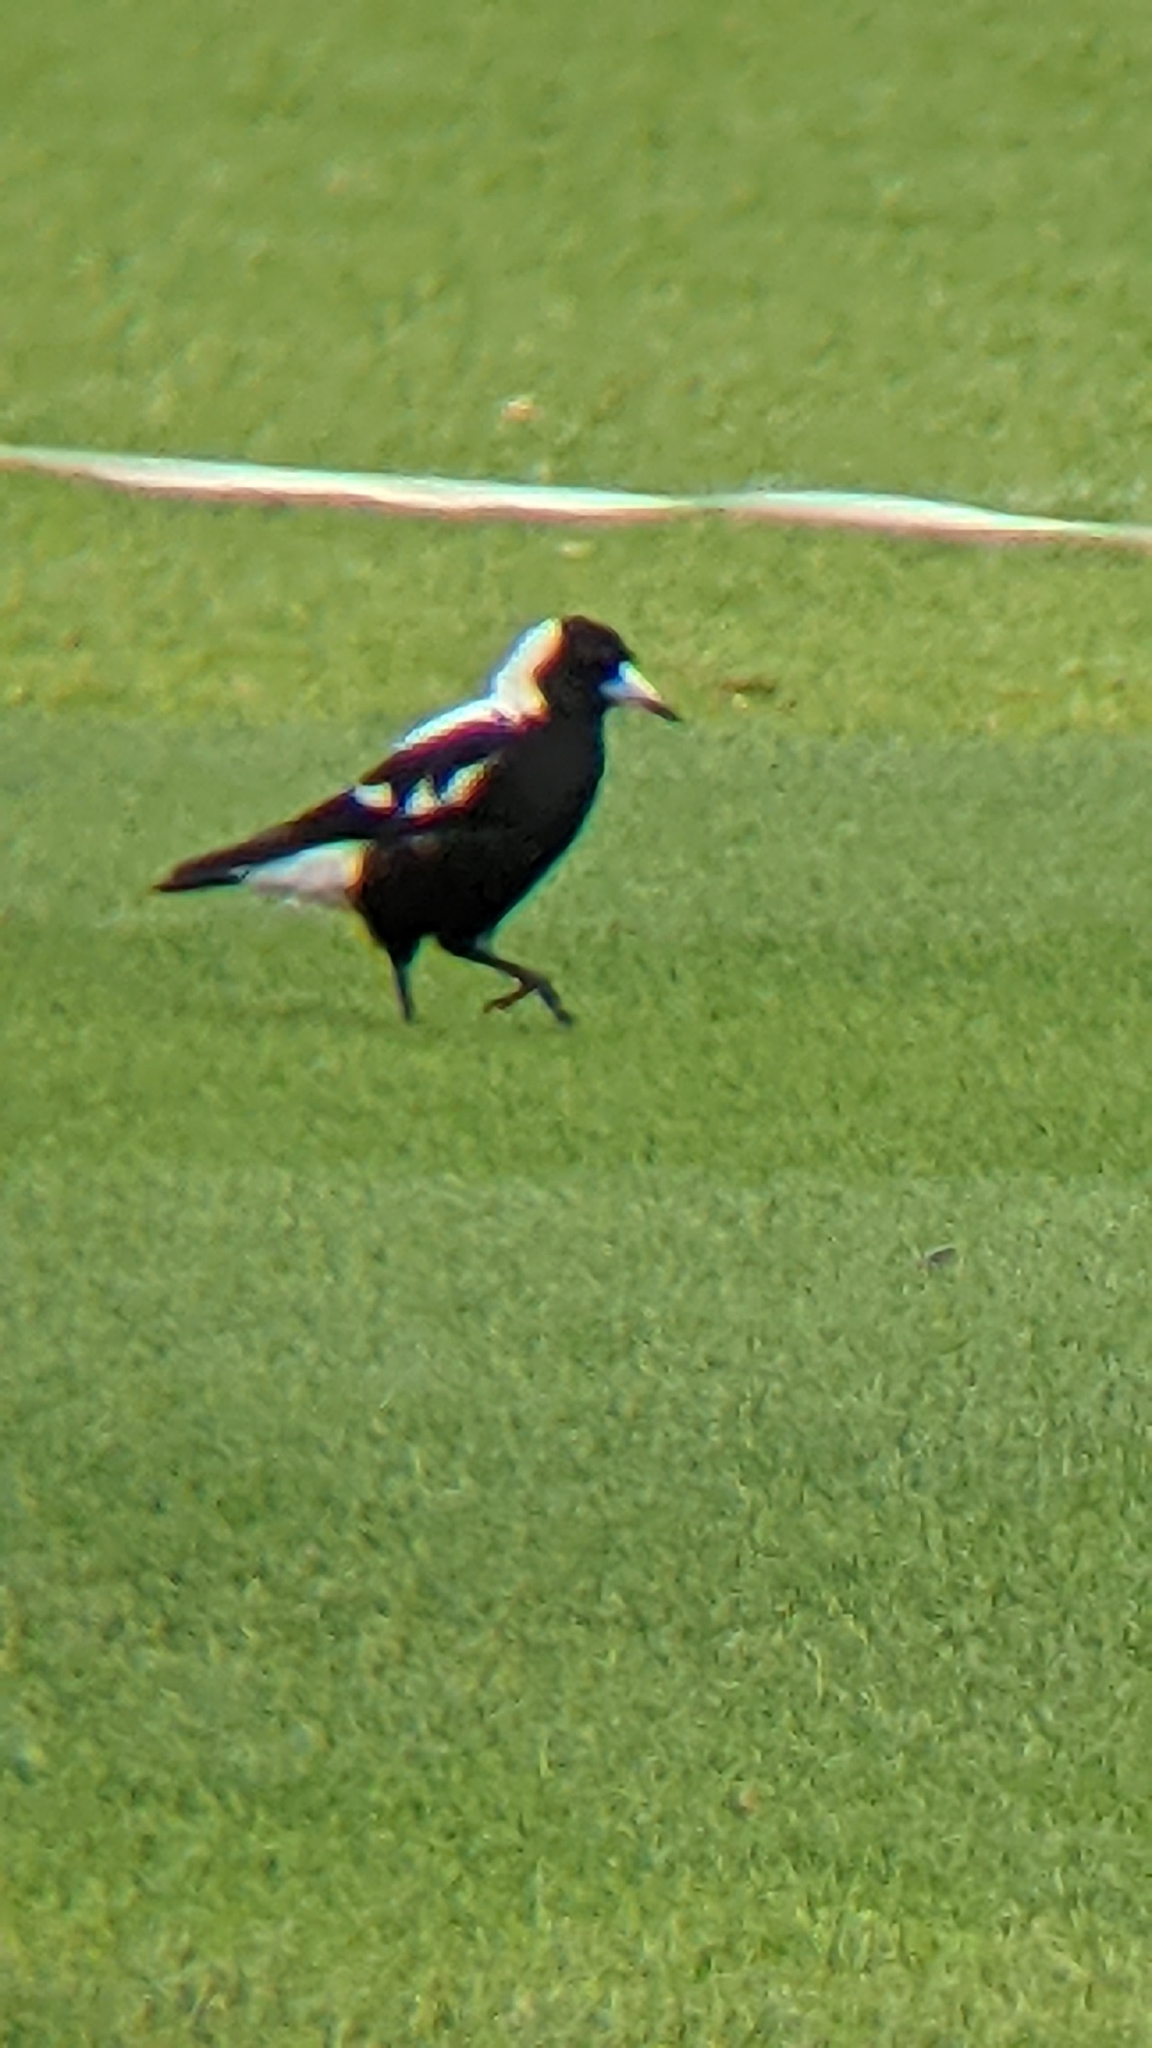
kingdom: Animalia
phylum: Chordata
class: Aves
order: Passeriformes
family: Cracticidae
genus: Gymnorhina
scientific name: Gymnorhina tibicen
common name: Australian magpie
